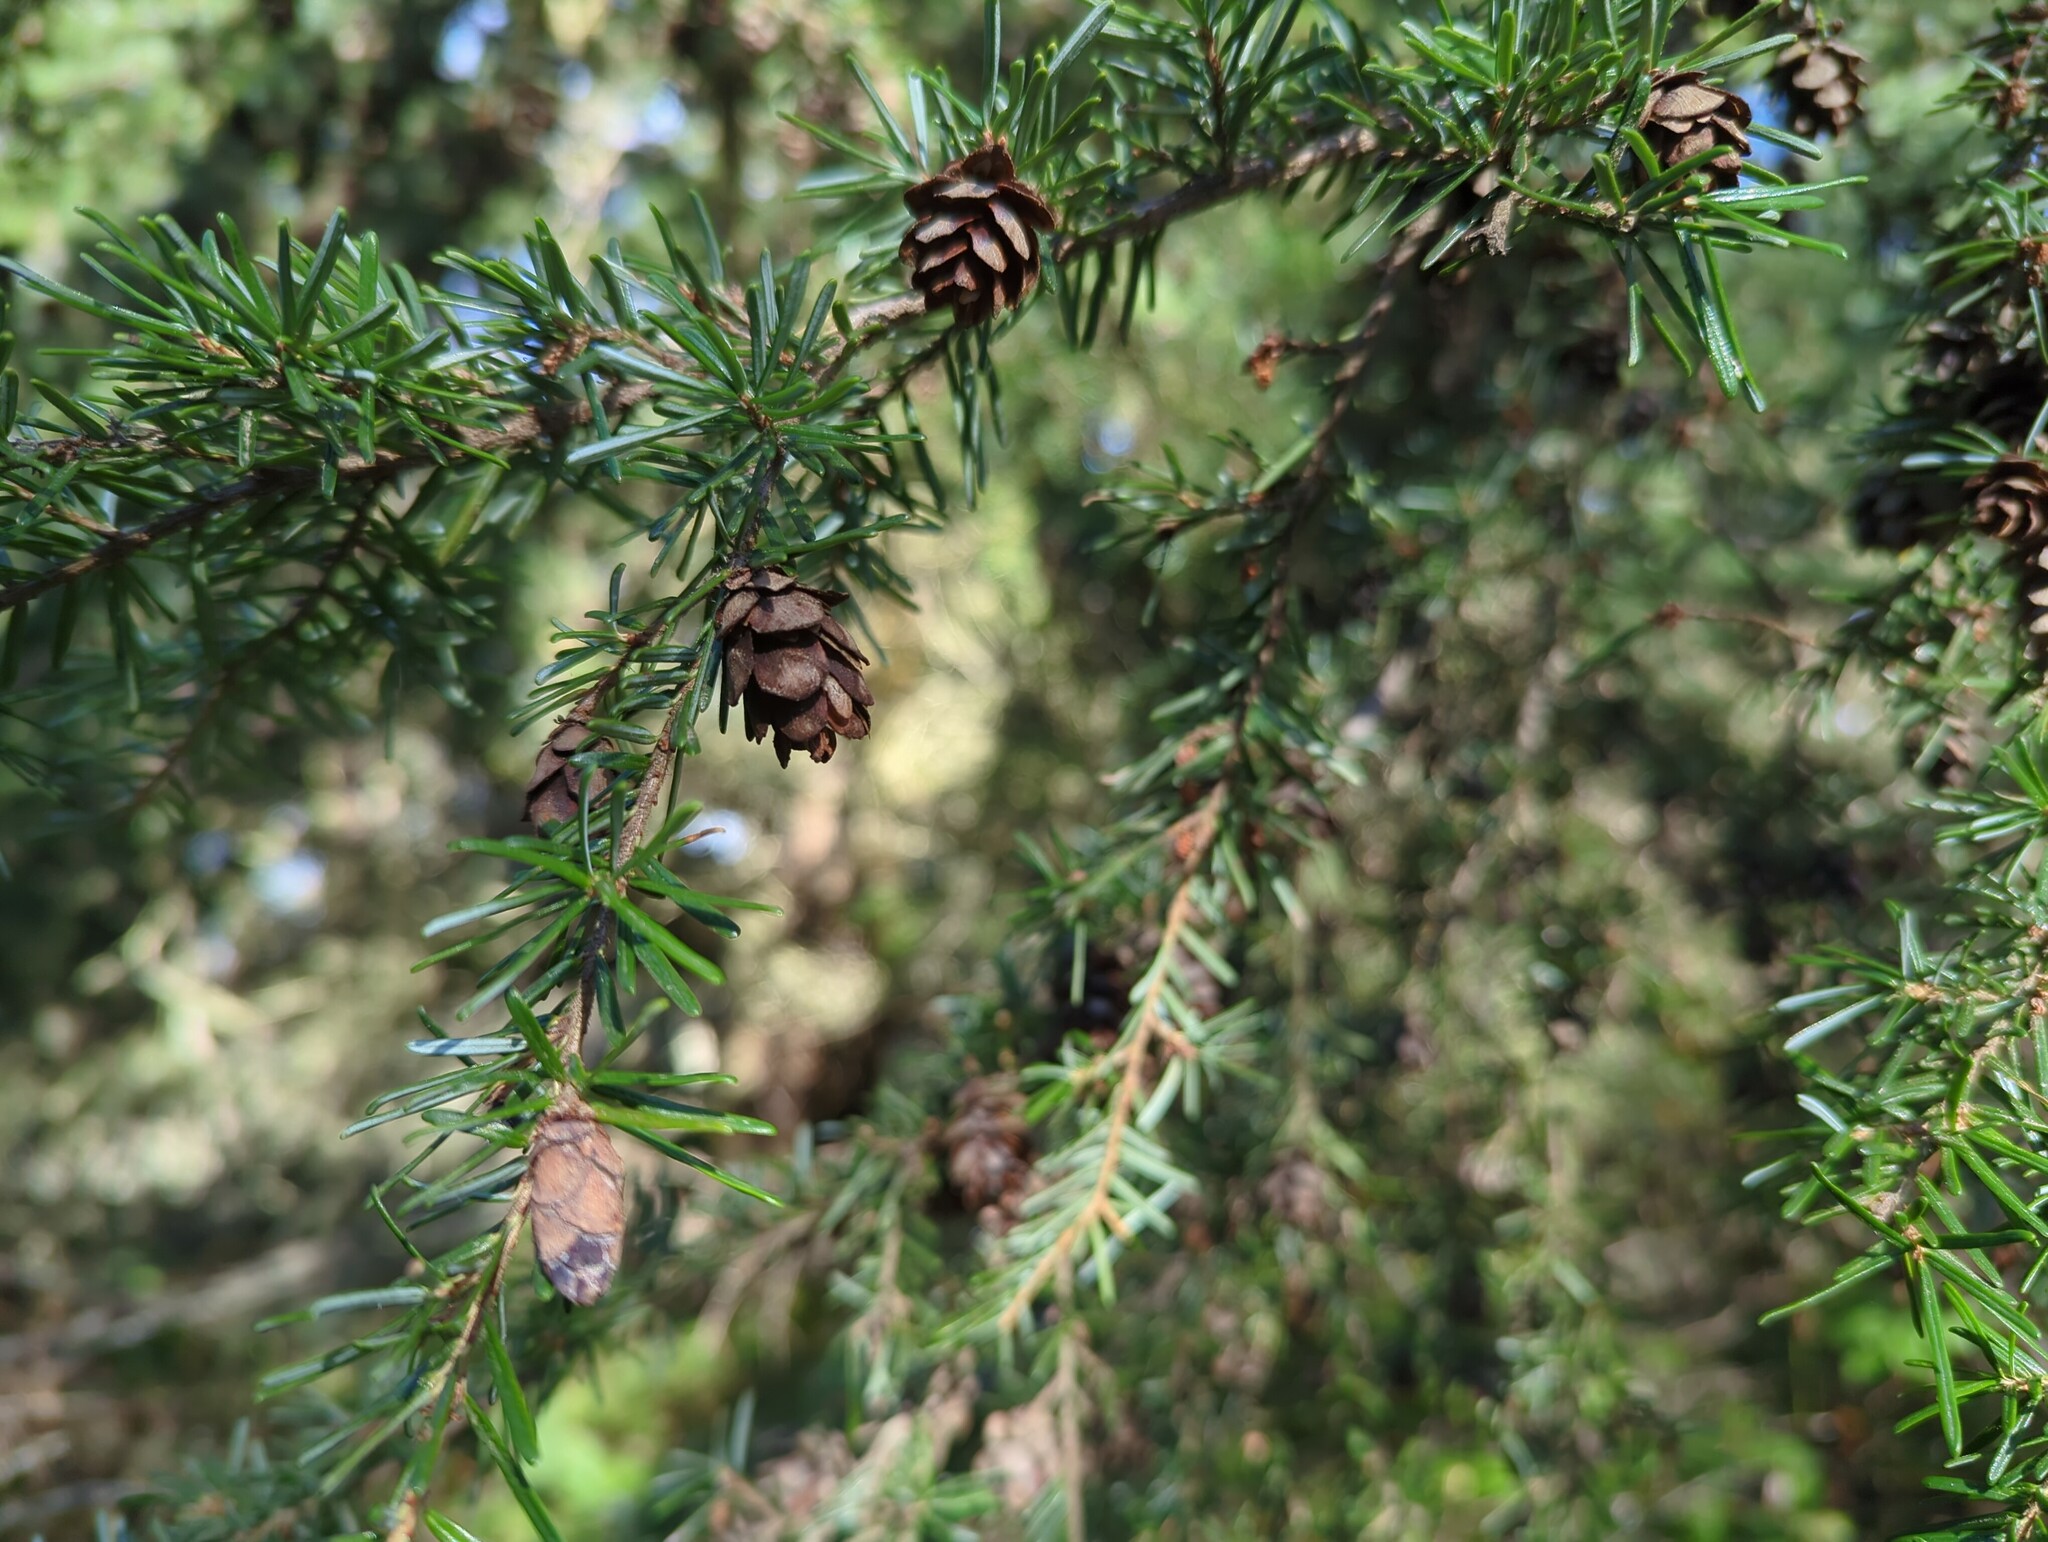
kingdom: Plantae
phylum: Tracheophyta
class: Pinopsida
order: Pinales
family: Pinaceae
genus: Tsuga
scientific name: Tsuga heterophylla
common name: Western hemlock
